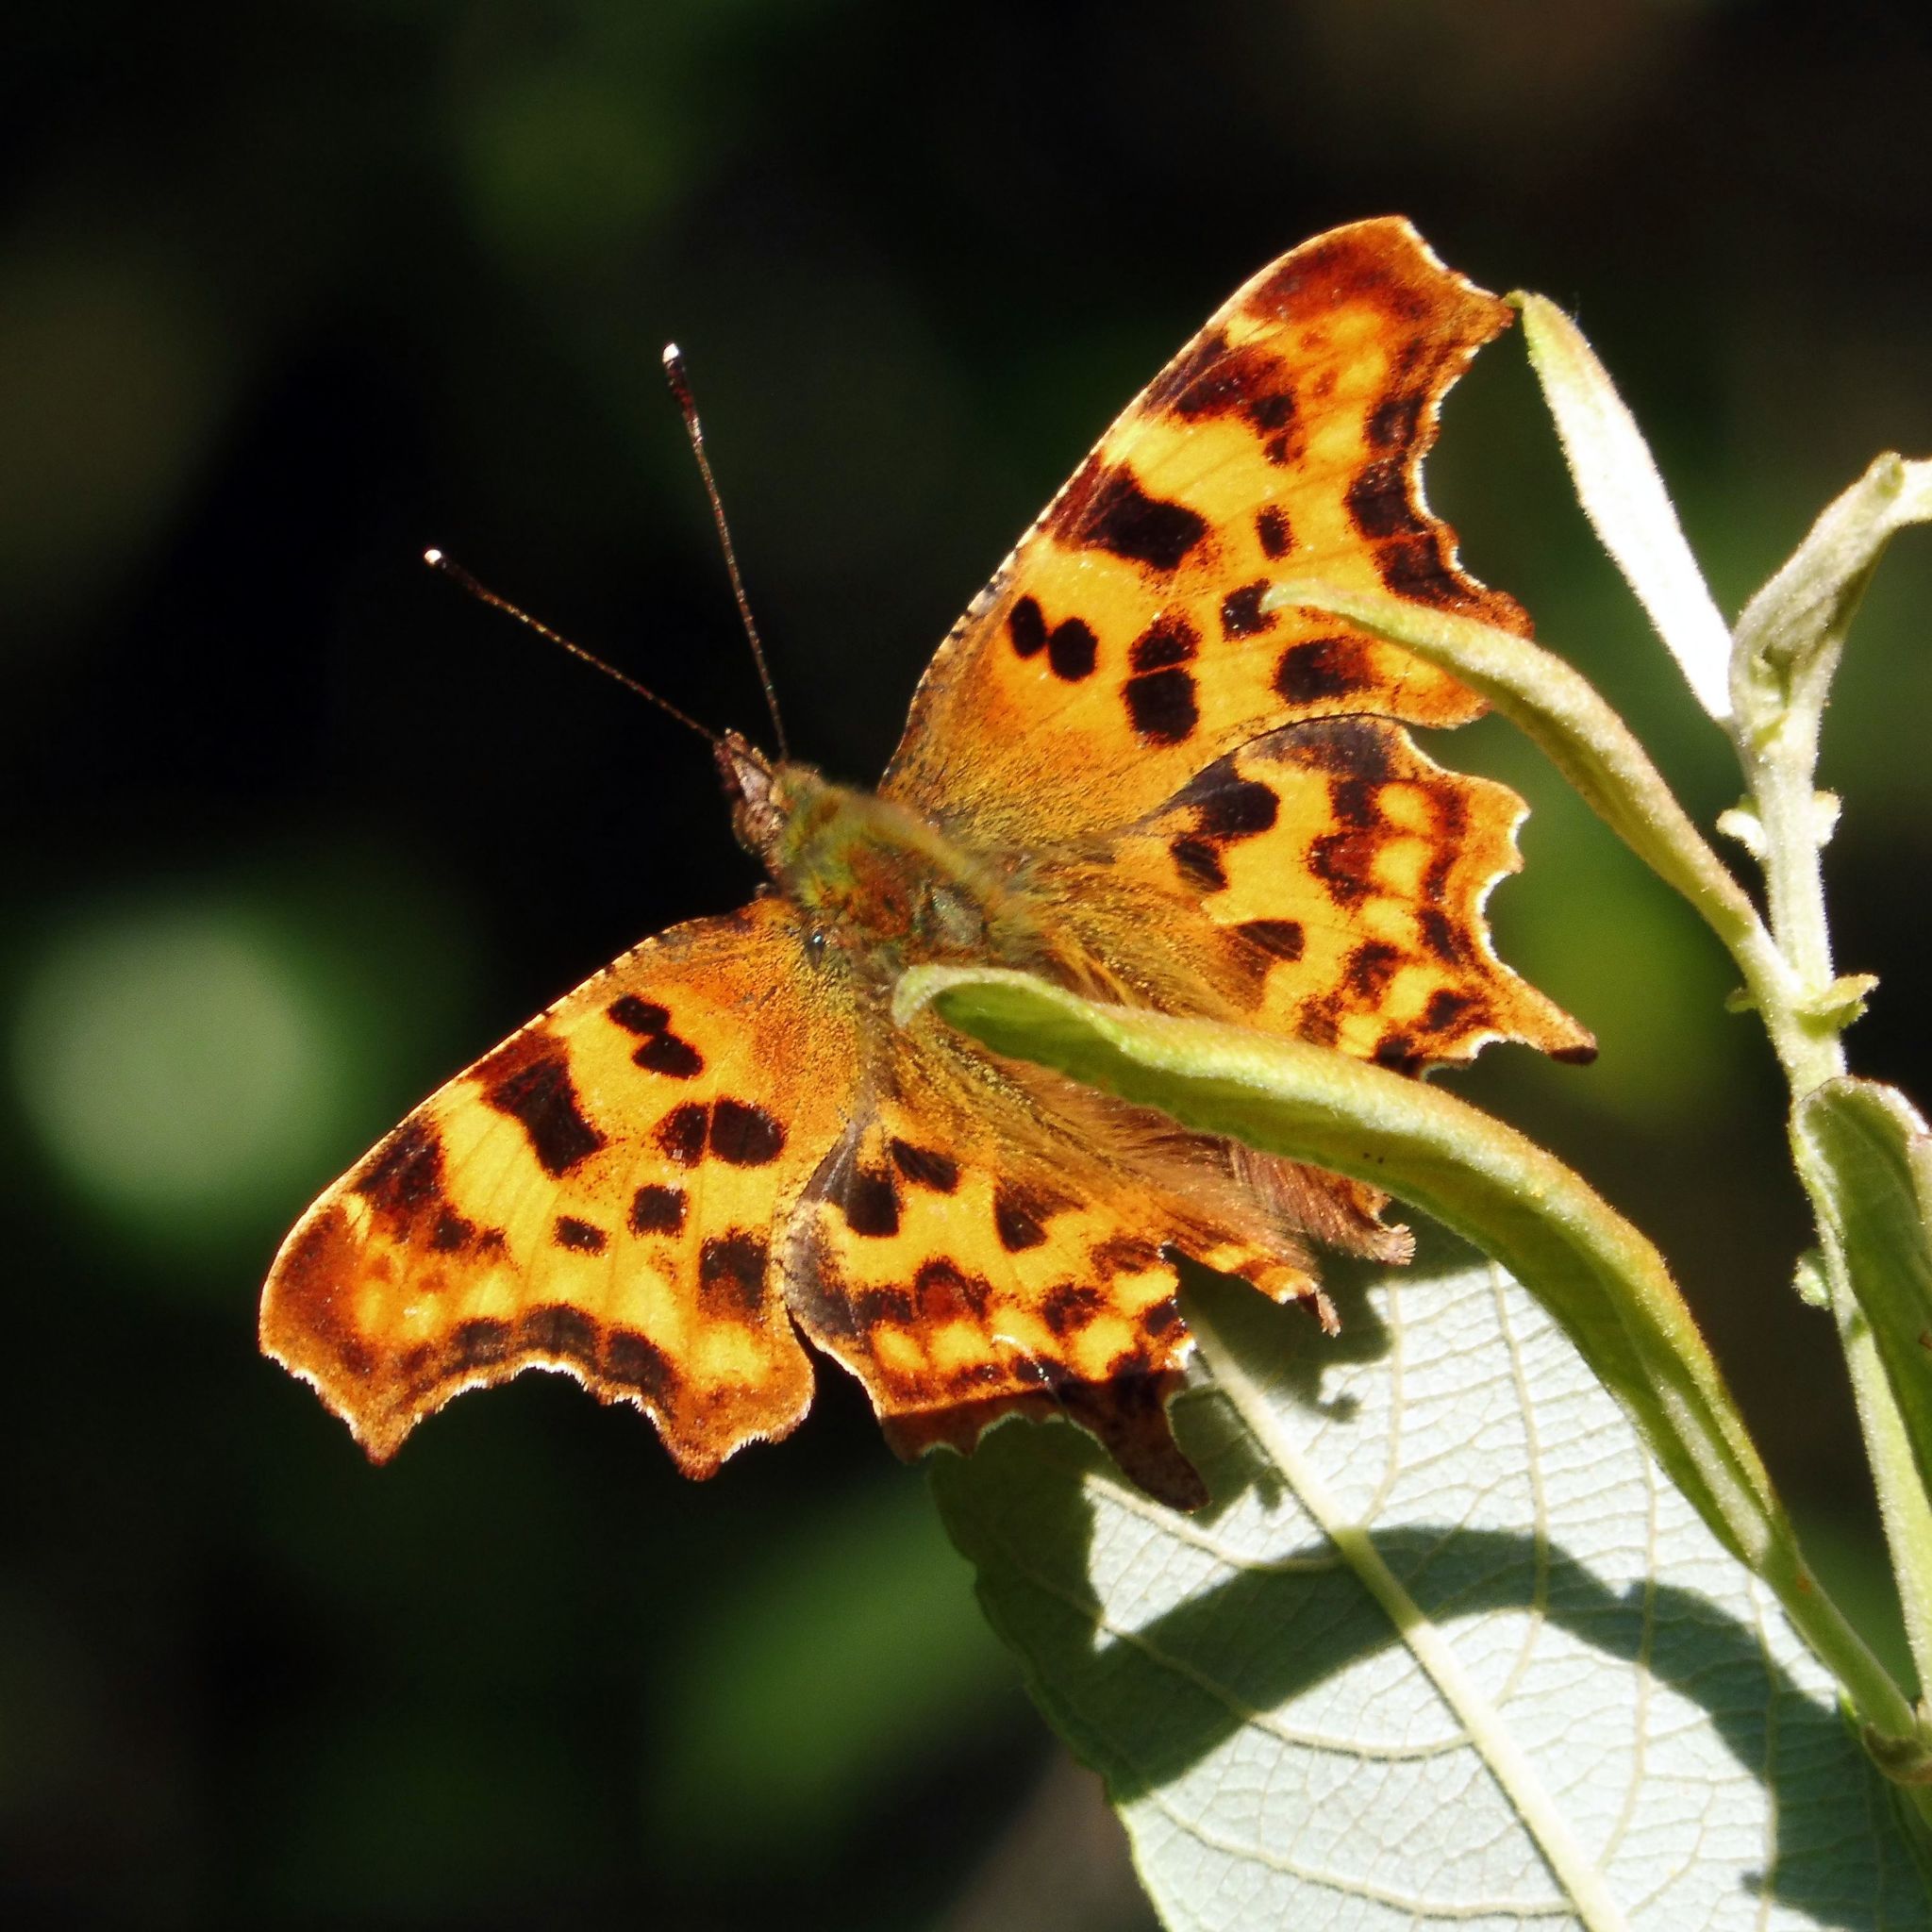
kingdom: Animalia
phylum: Arthropoda
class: Insecta
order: Lepidoptera
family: Nymphalidae
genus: Polygonia
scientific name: Polygonia c-album
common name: Comma
